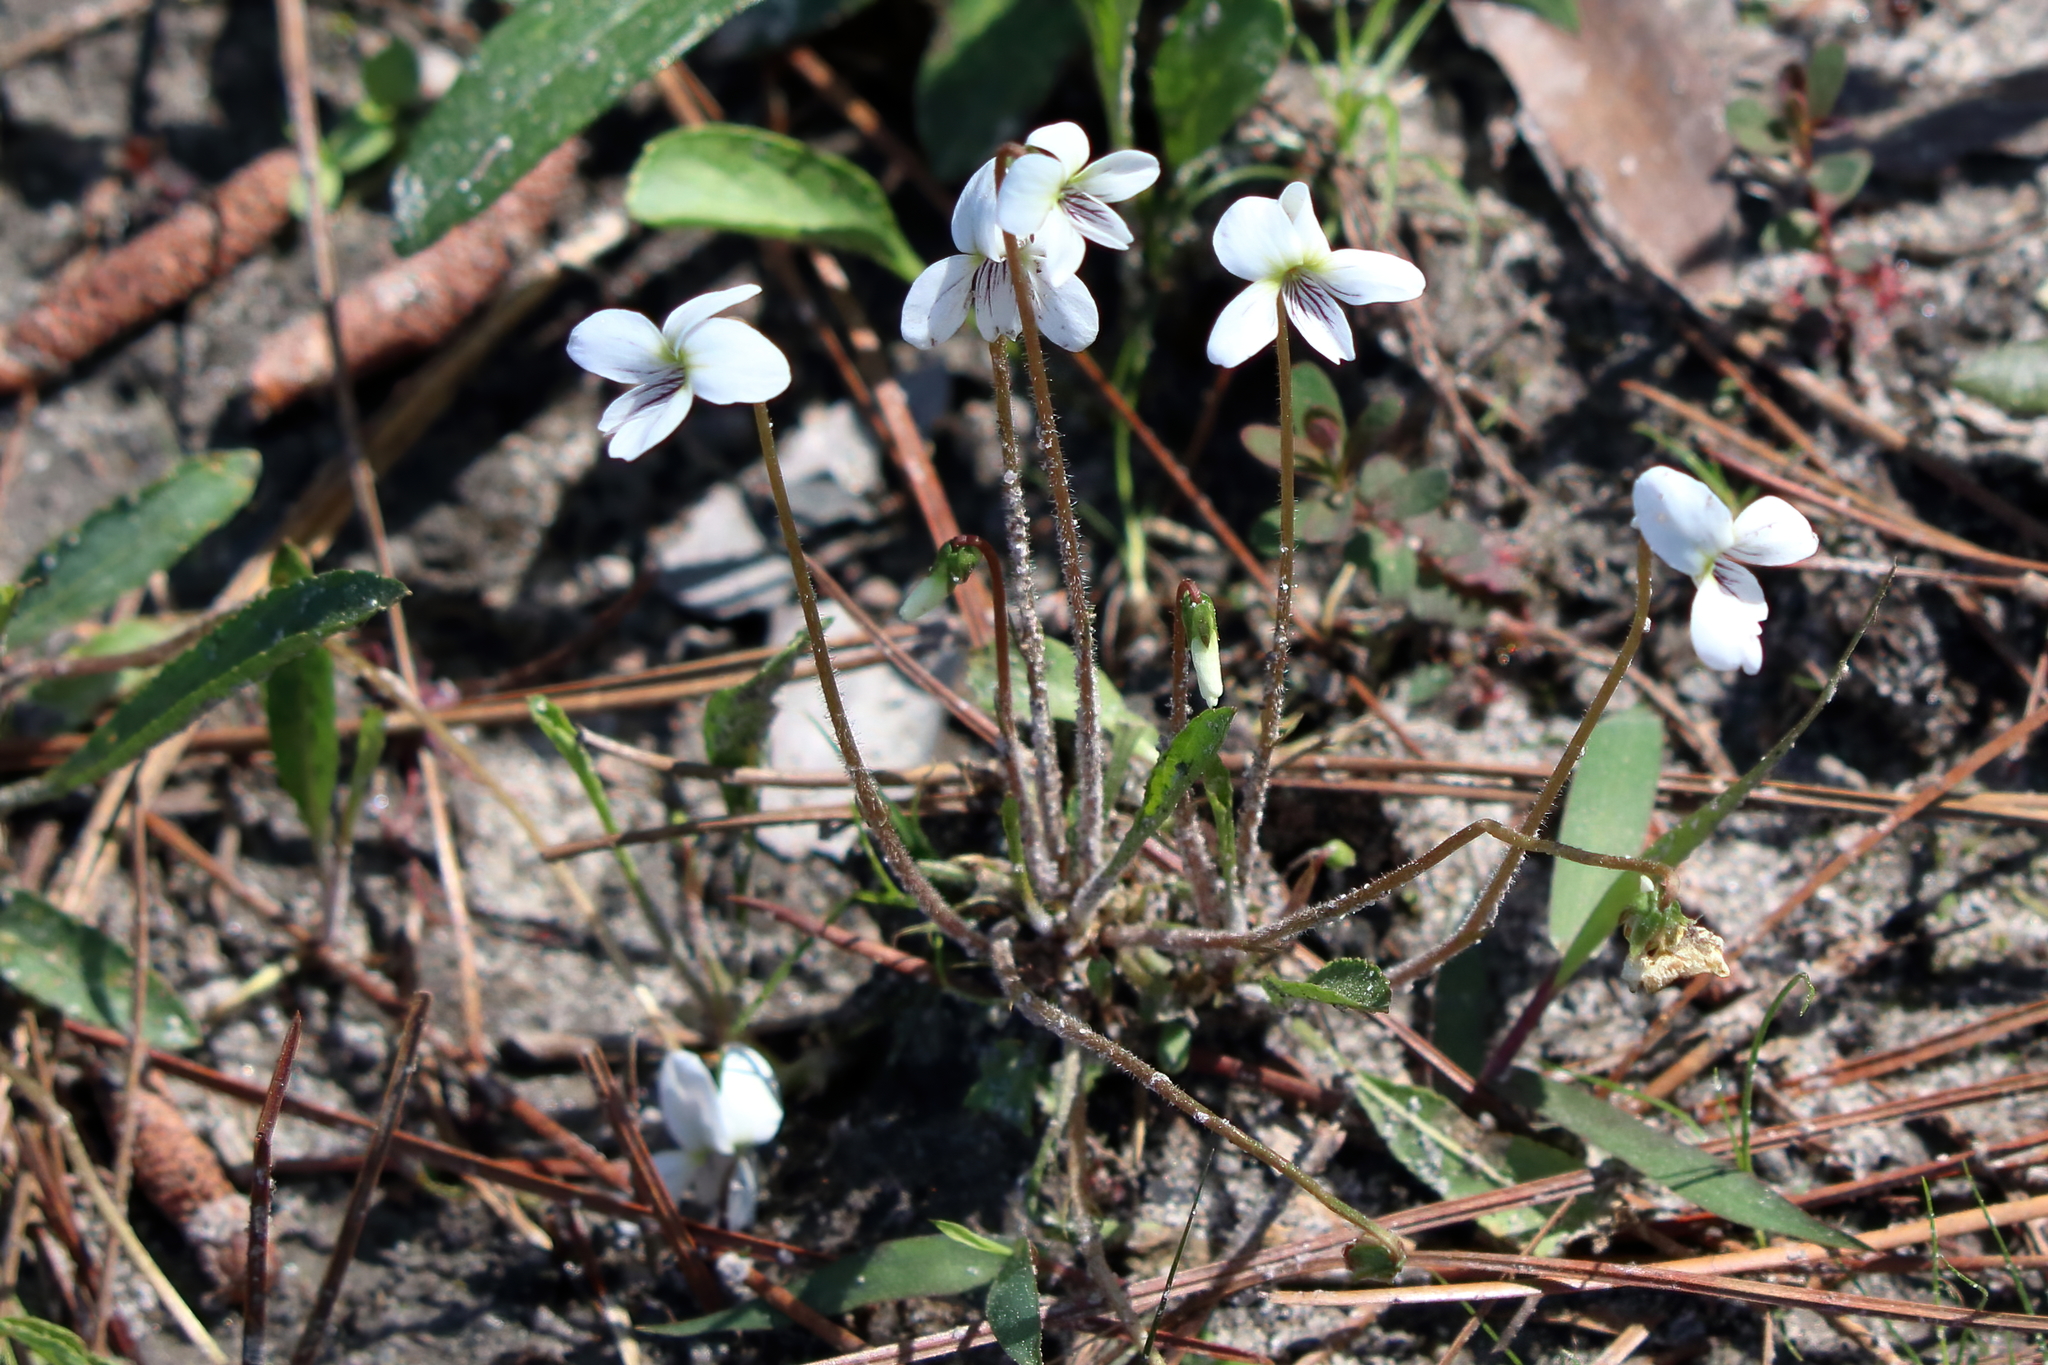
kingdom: Plantae
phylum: Tracheophyta
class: Magnoliopsida
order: Malpighiales
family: Violaceae
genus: Viola
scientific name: Viola lanceolata
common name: Bog white violet
